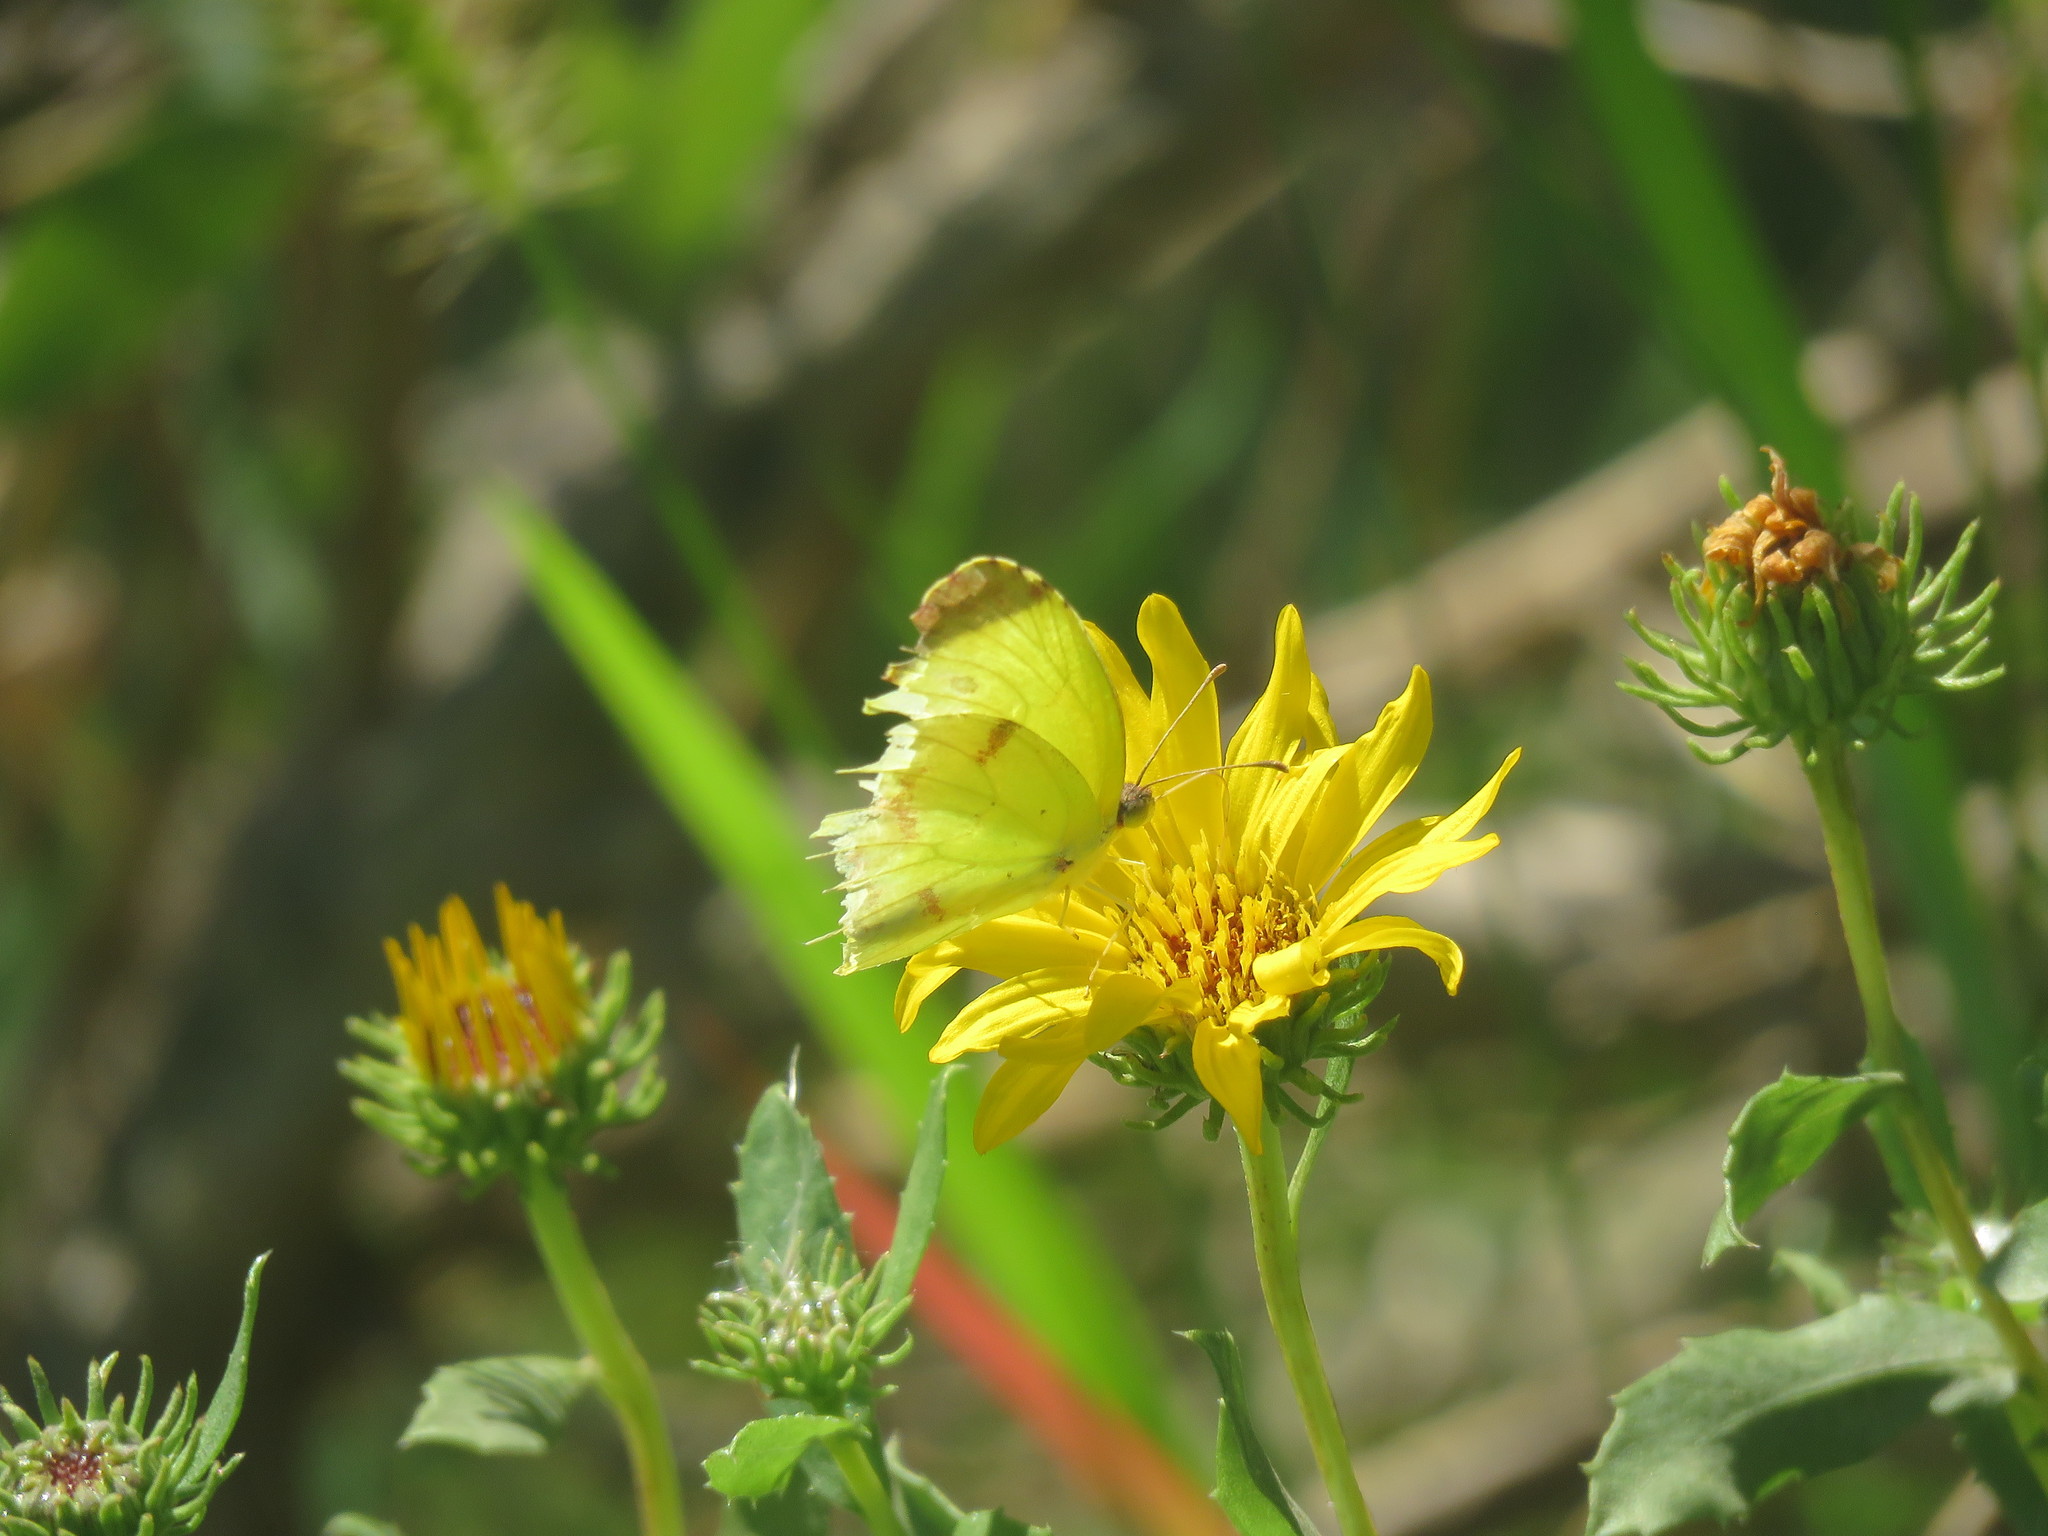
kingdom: Animalia
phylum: Arthropoda
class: Insecta
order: Lepidoptera
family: Pieridae
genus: Teriocolias
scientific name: Teriocolias
